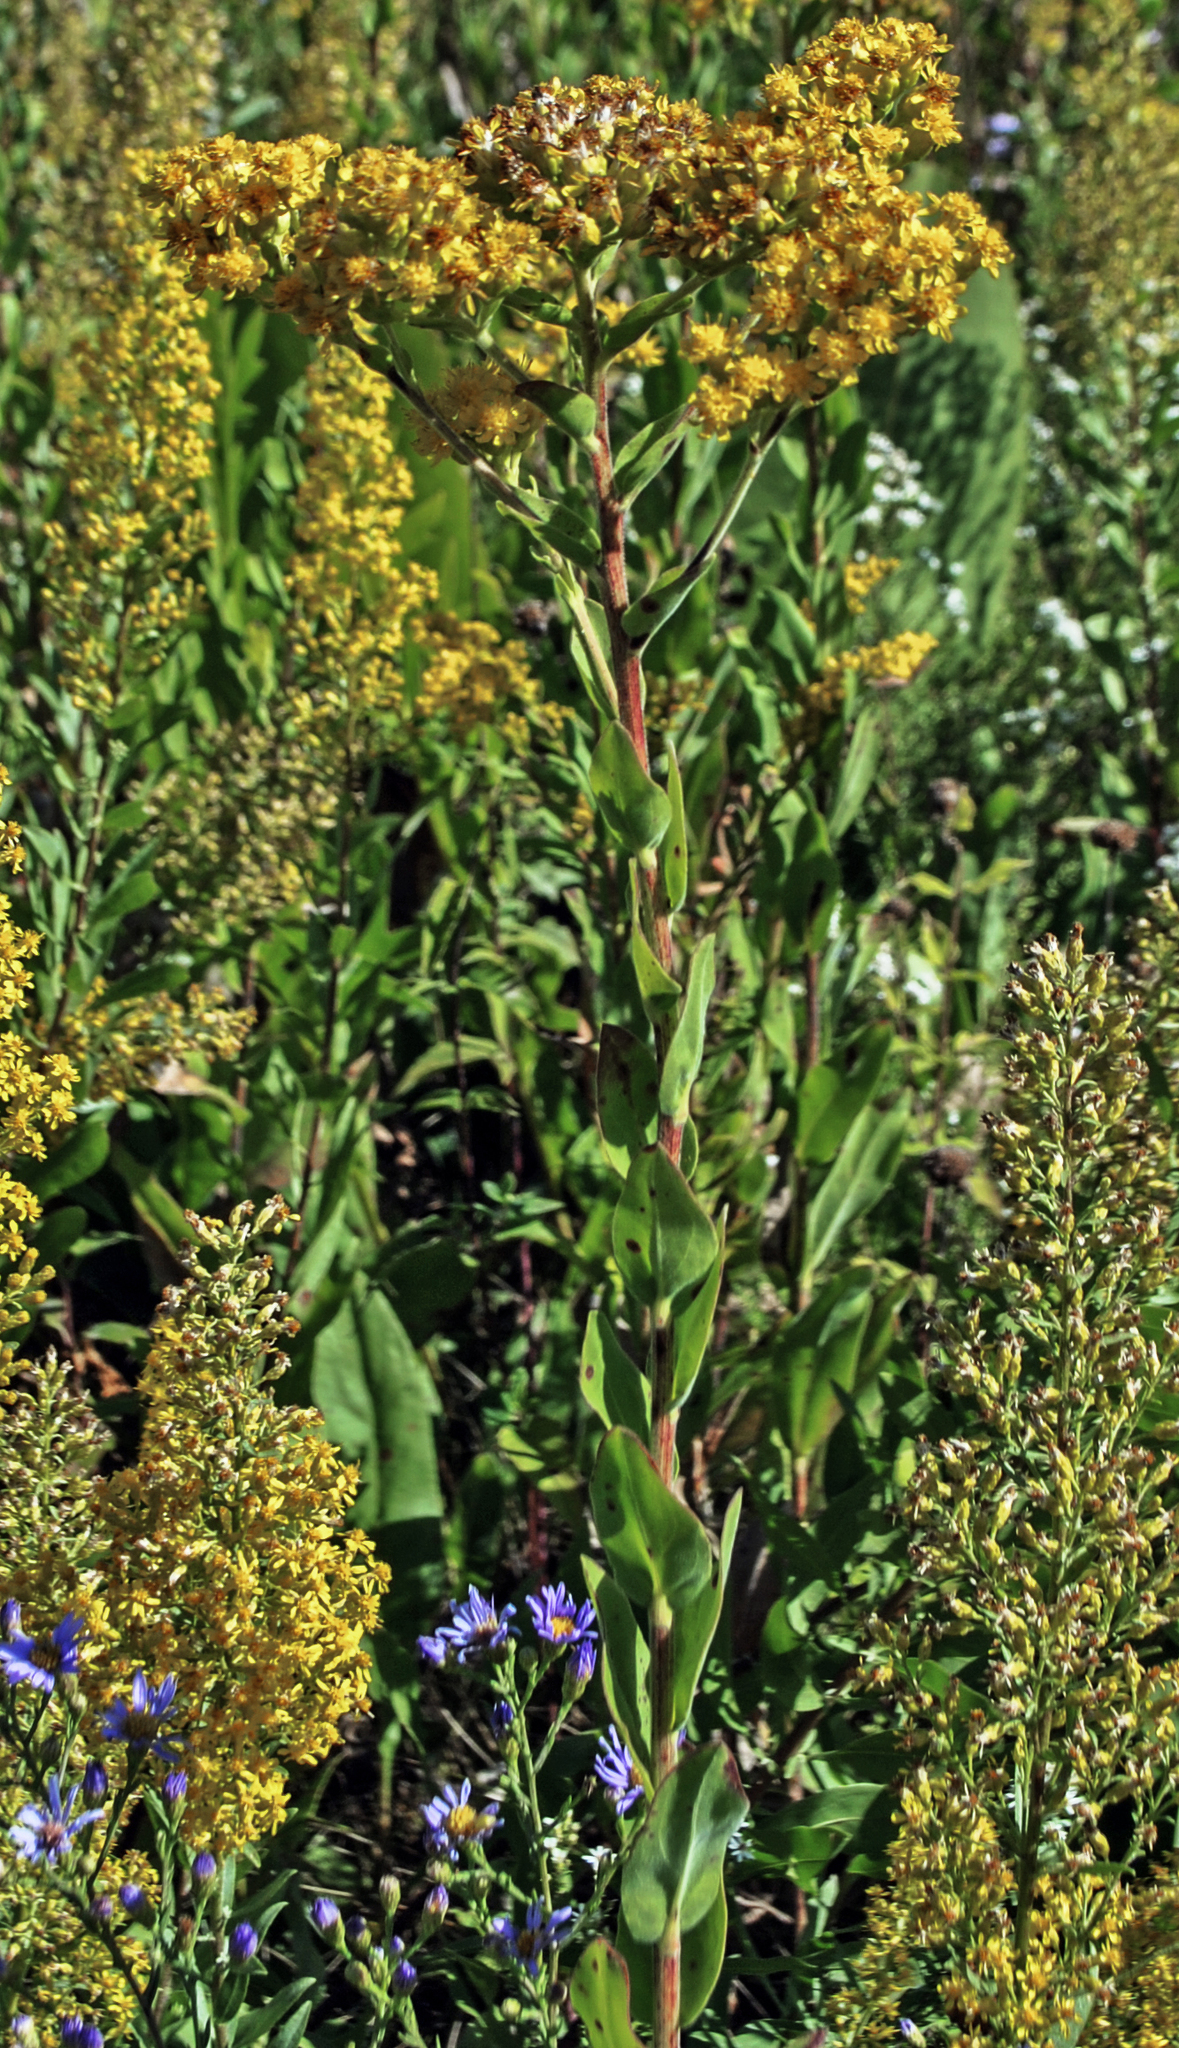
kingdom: Plantae
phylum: Tracheophyta
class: Magnoliopsida
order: Asterales
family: Asteraceae
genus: Solidago
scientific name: Solidago rigida
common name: Rigid goldenrod
